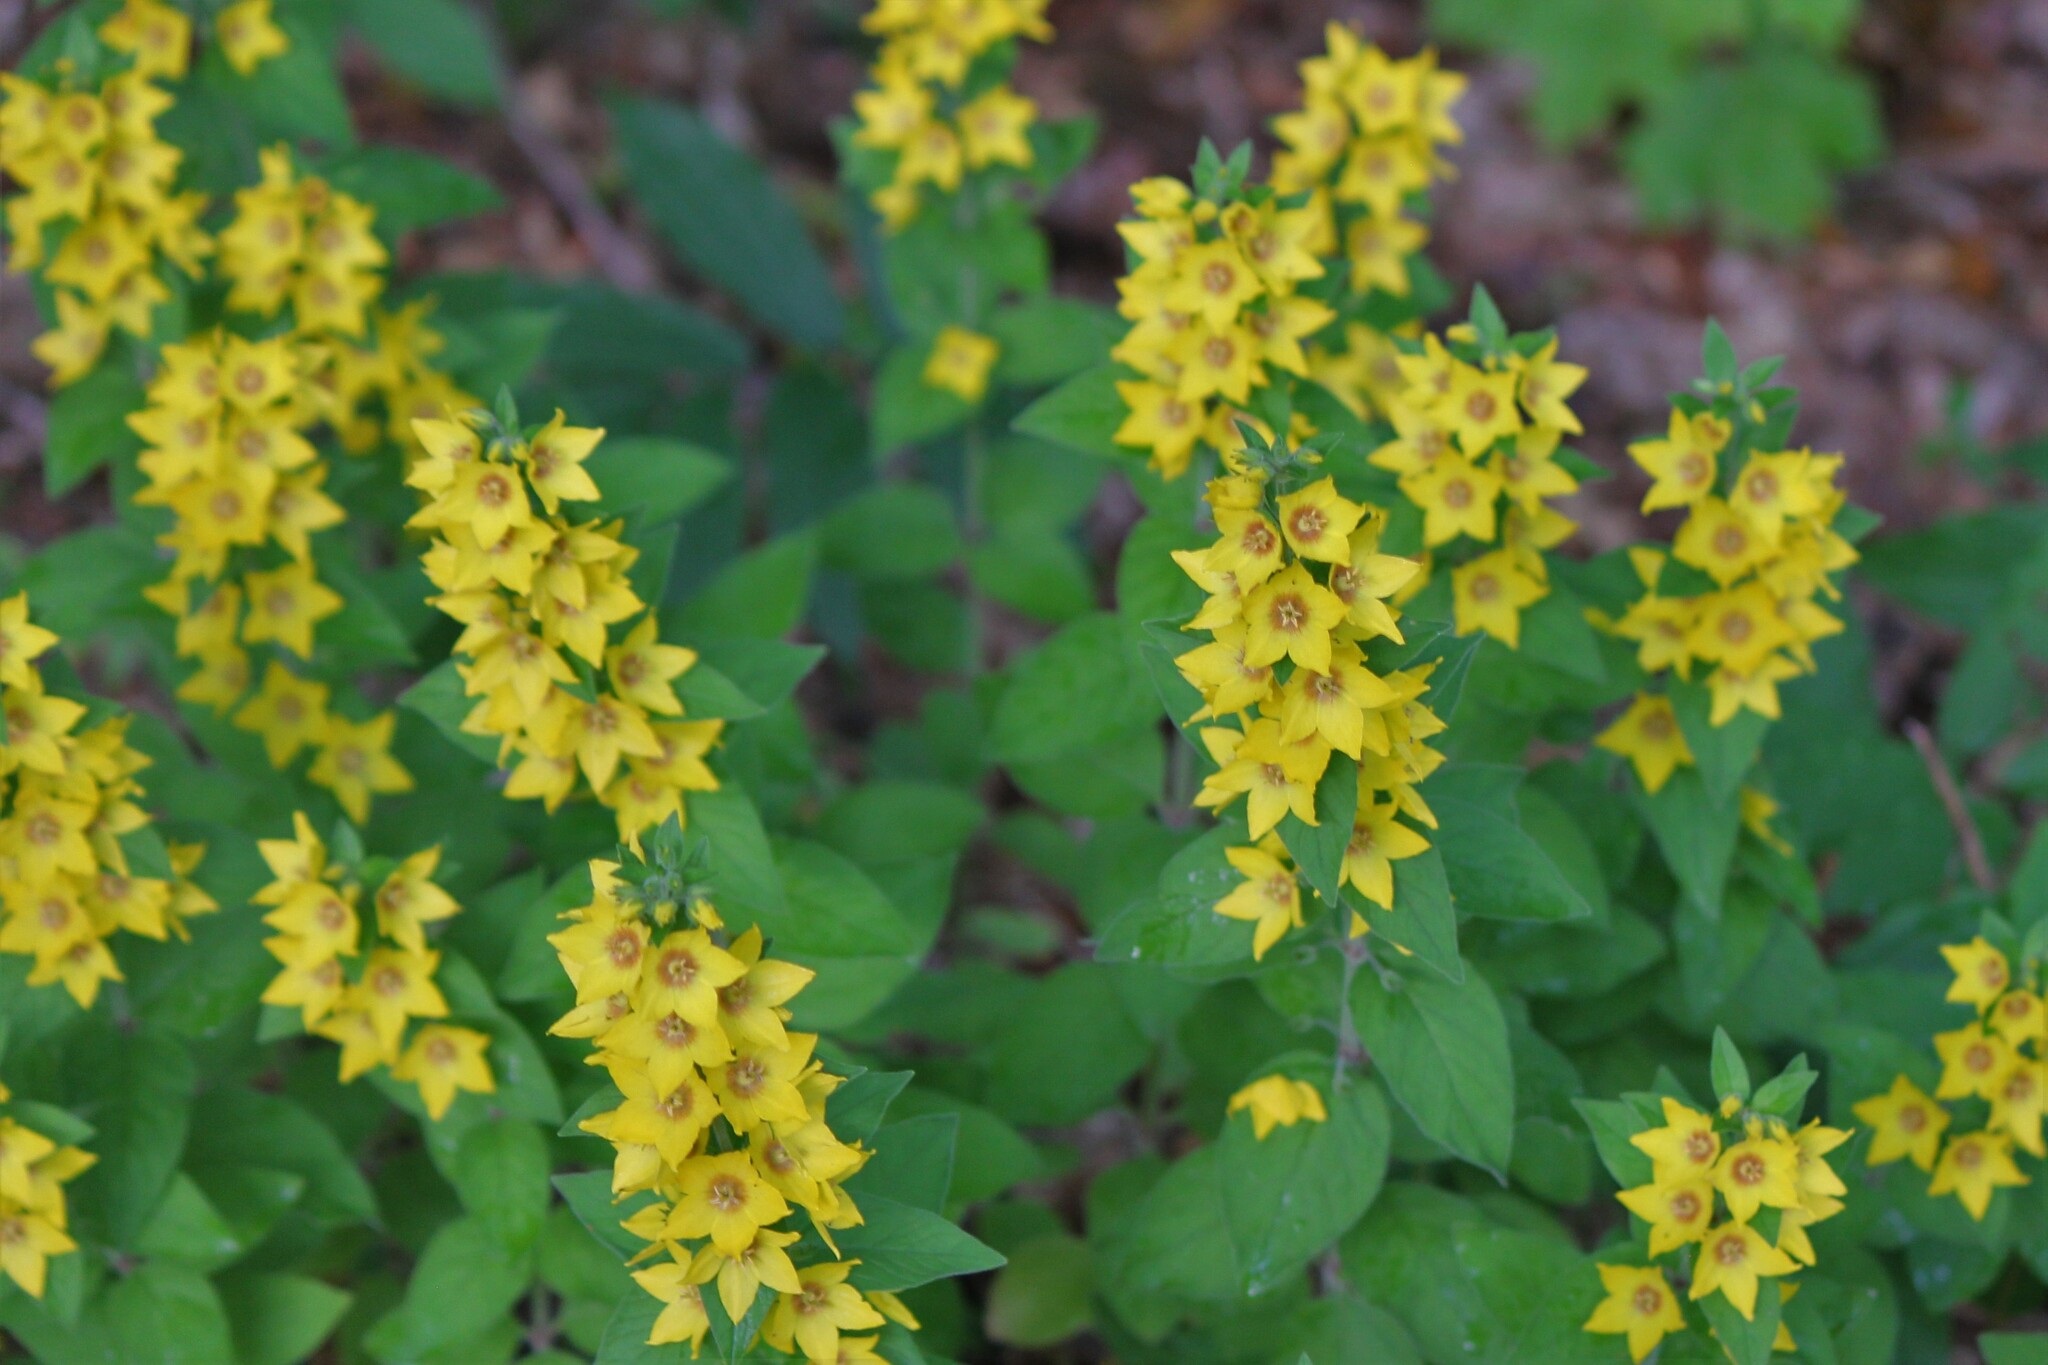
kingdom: Plantae
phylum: Tracheophyta
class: Magnoliopsida
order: Ericales
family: Primulaceae
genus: Lysimachia
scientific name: Lysimachia punctata
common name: Dotted loosestrife
